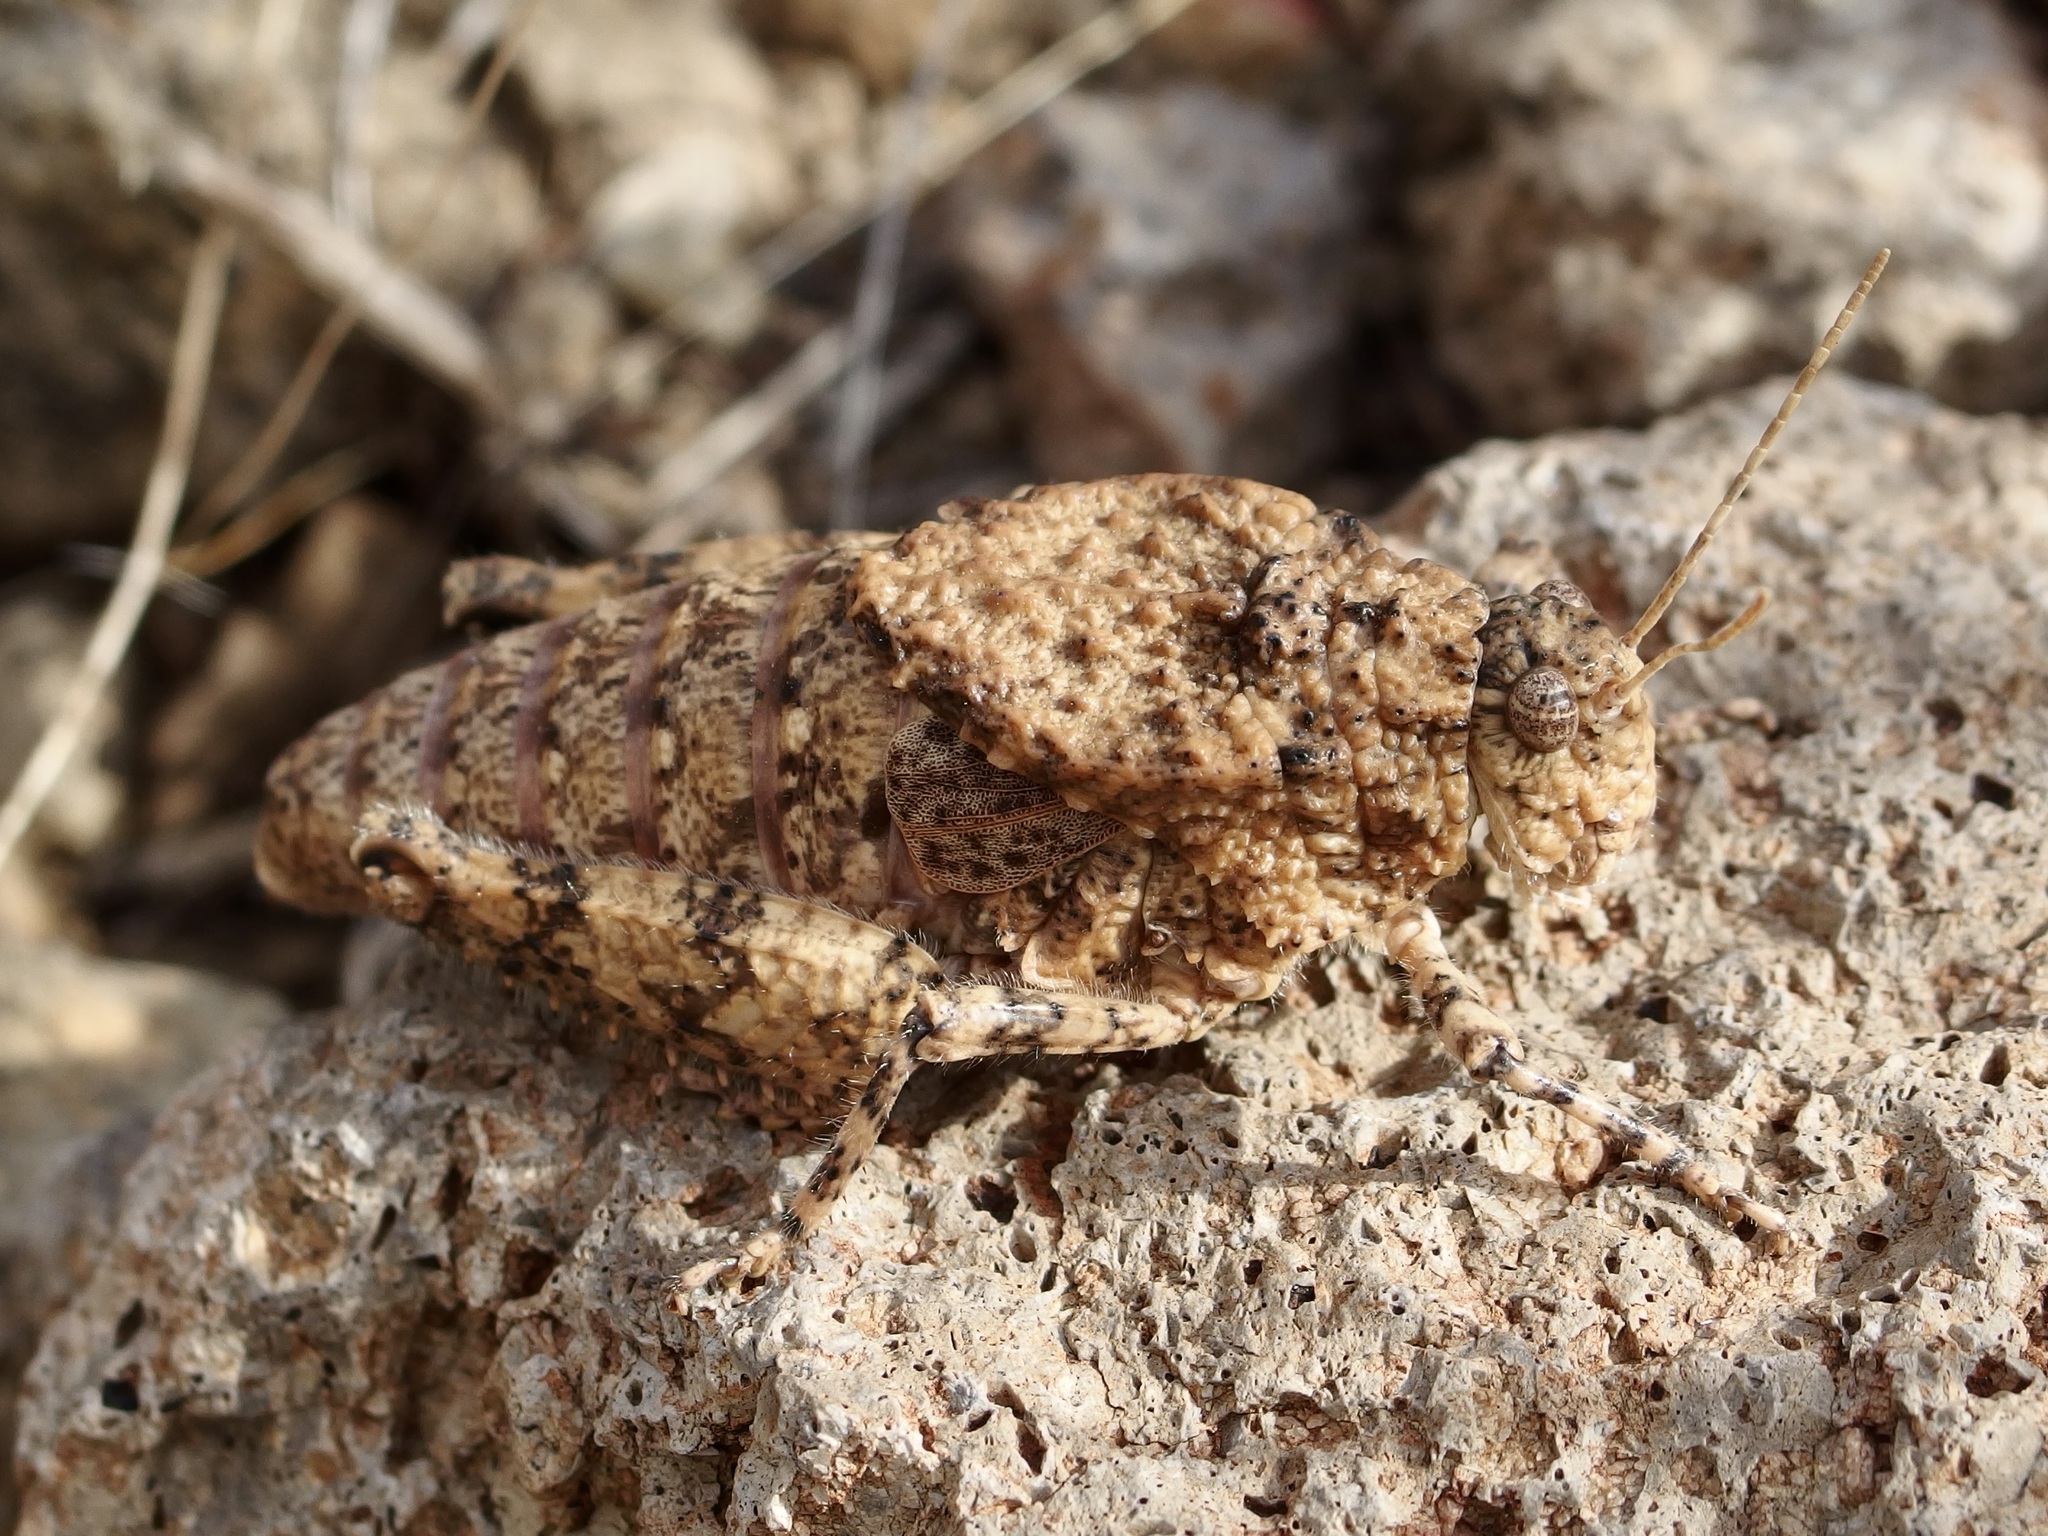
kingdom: Animalia
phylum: Arthropoda
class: Insecta
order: Orthoptera
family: Romaleidae
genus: Phrynotettix
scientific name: Phrynotettix tshivavensis
